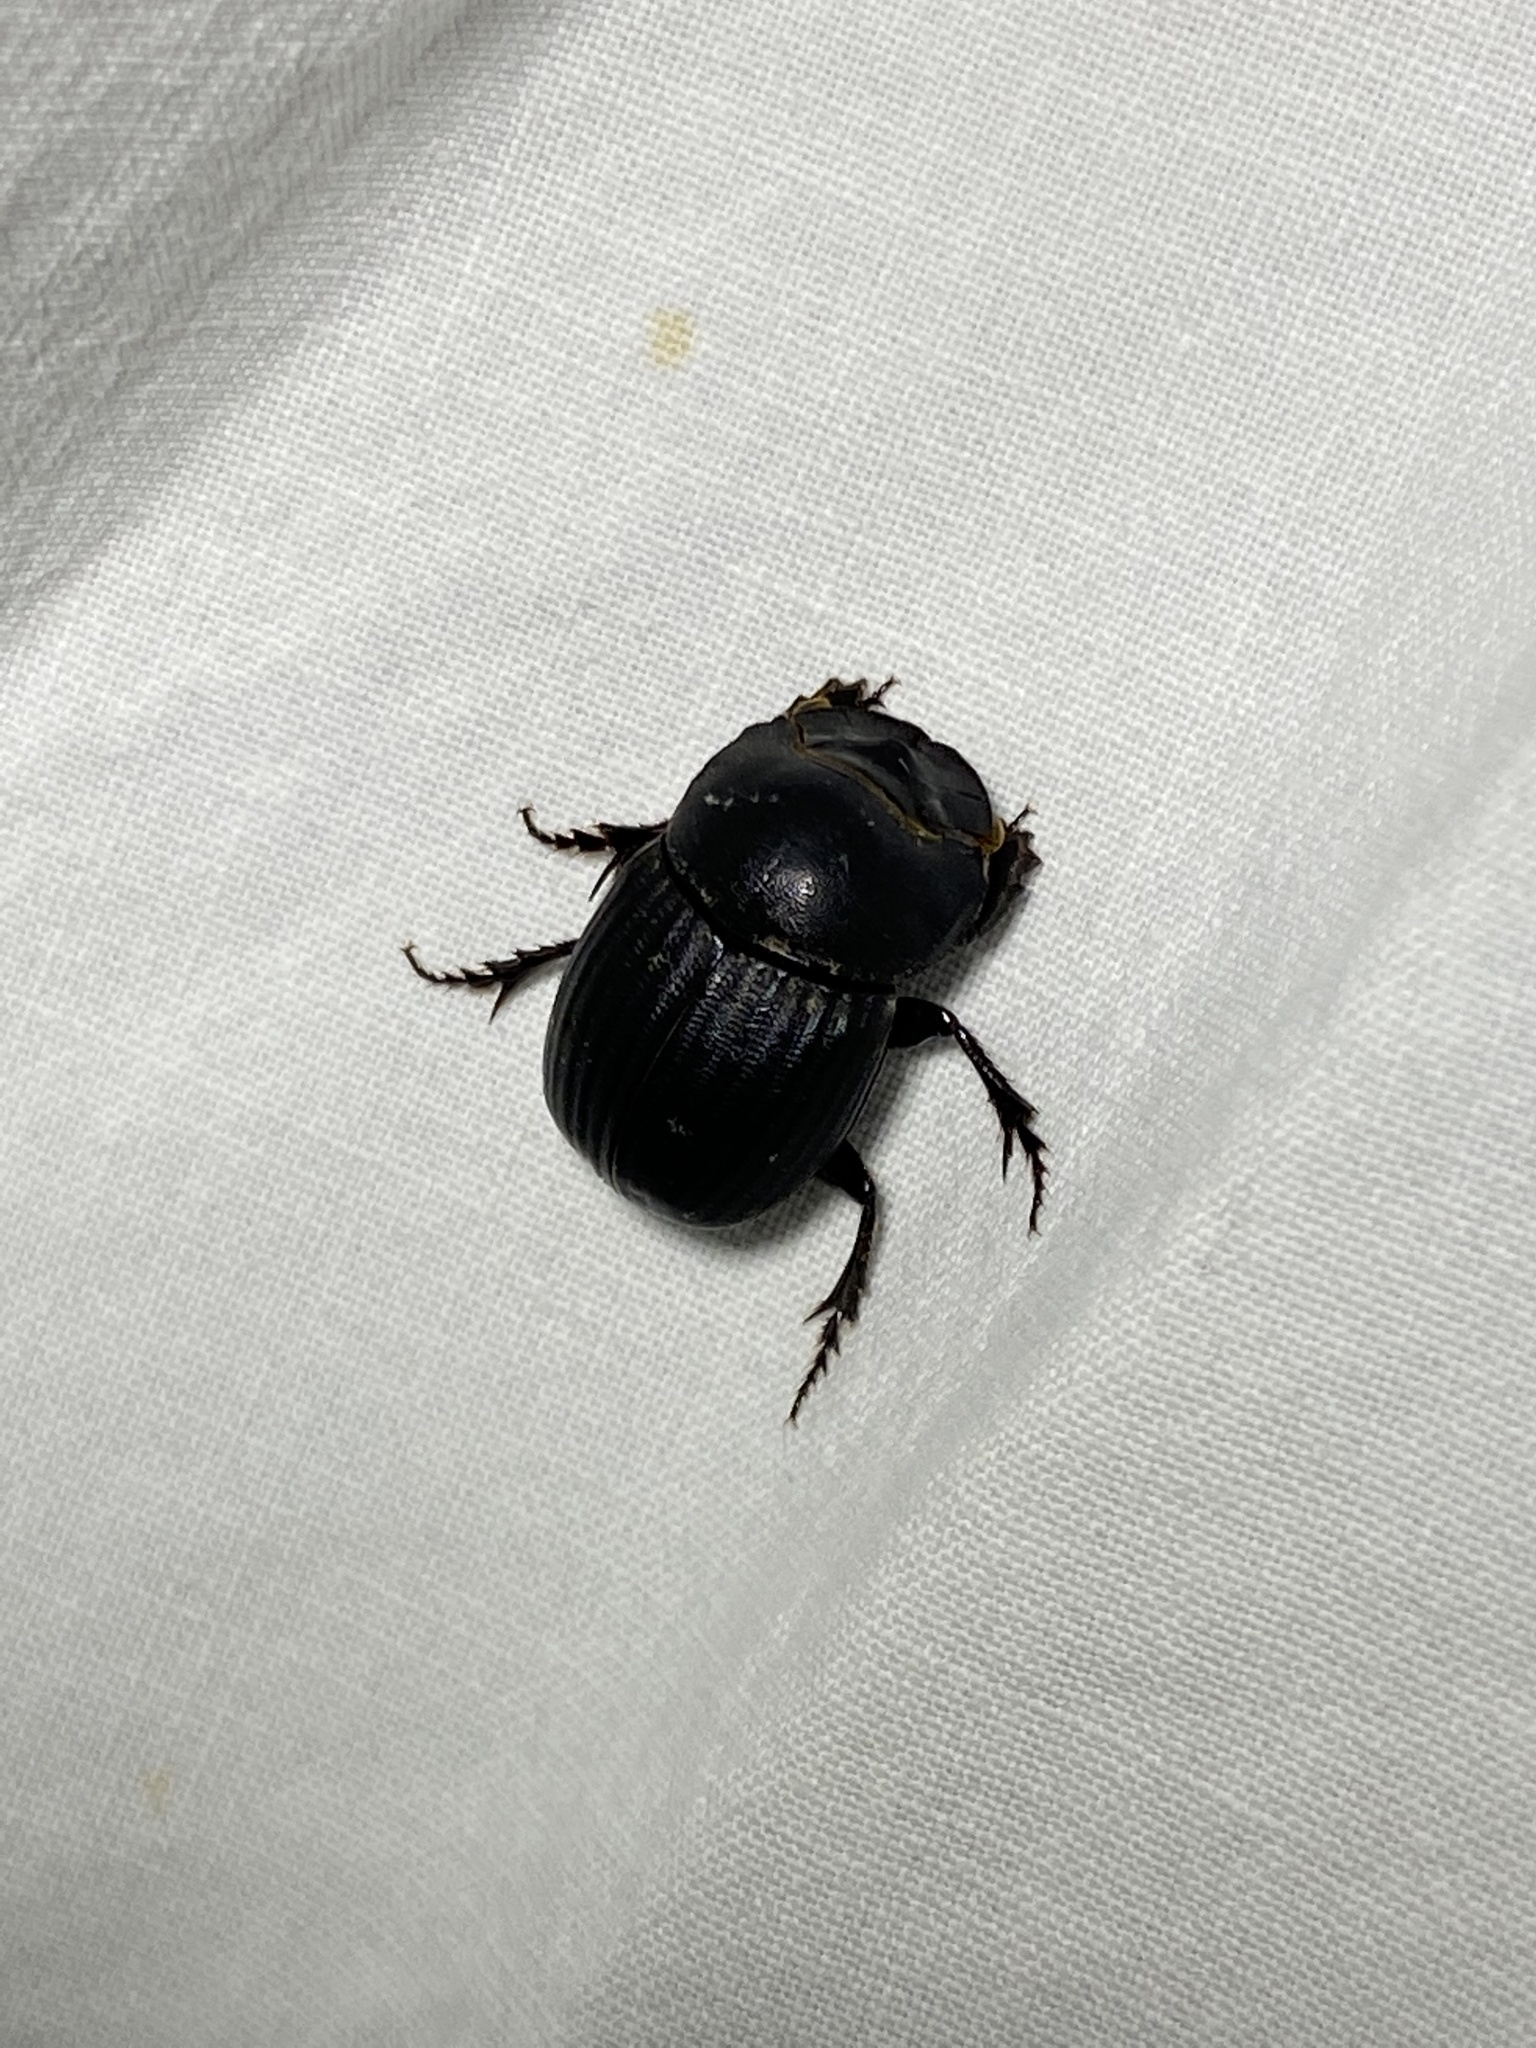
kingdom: Animalia
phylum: Arthropoda
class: Insecta
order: Coleoptera
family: Scarabaeidae
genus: Copris
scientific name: Copris fricator
